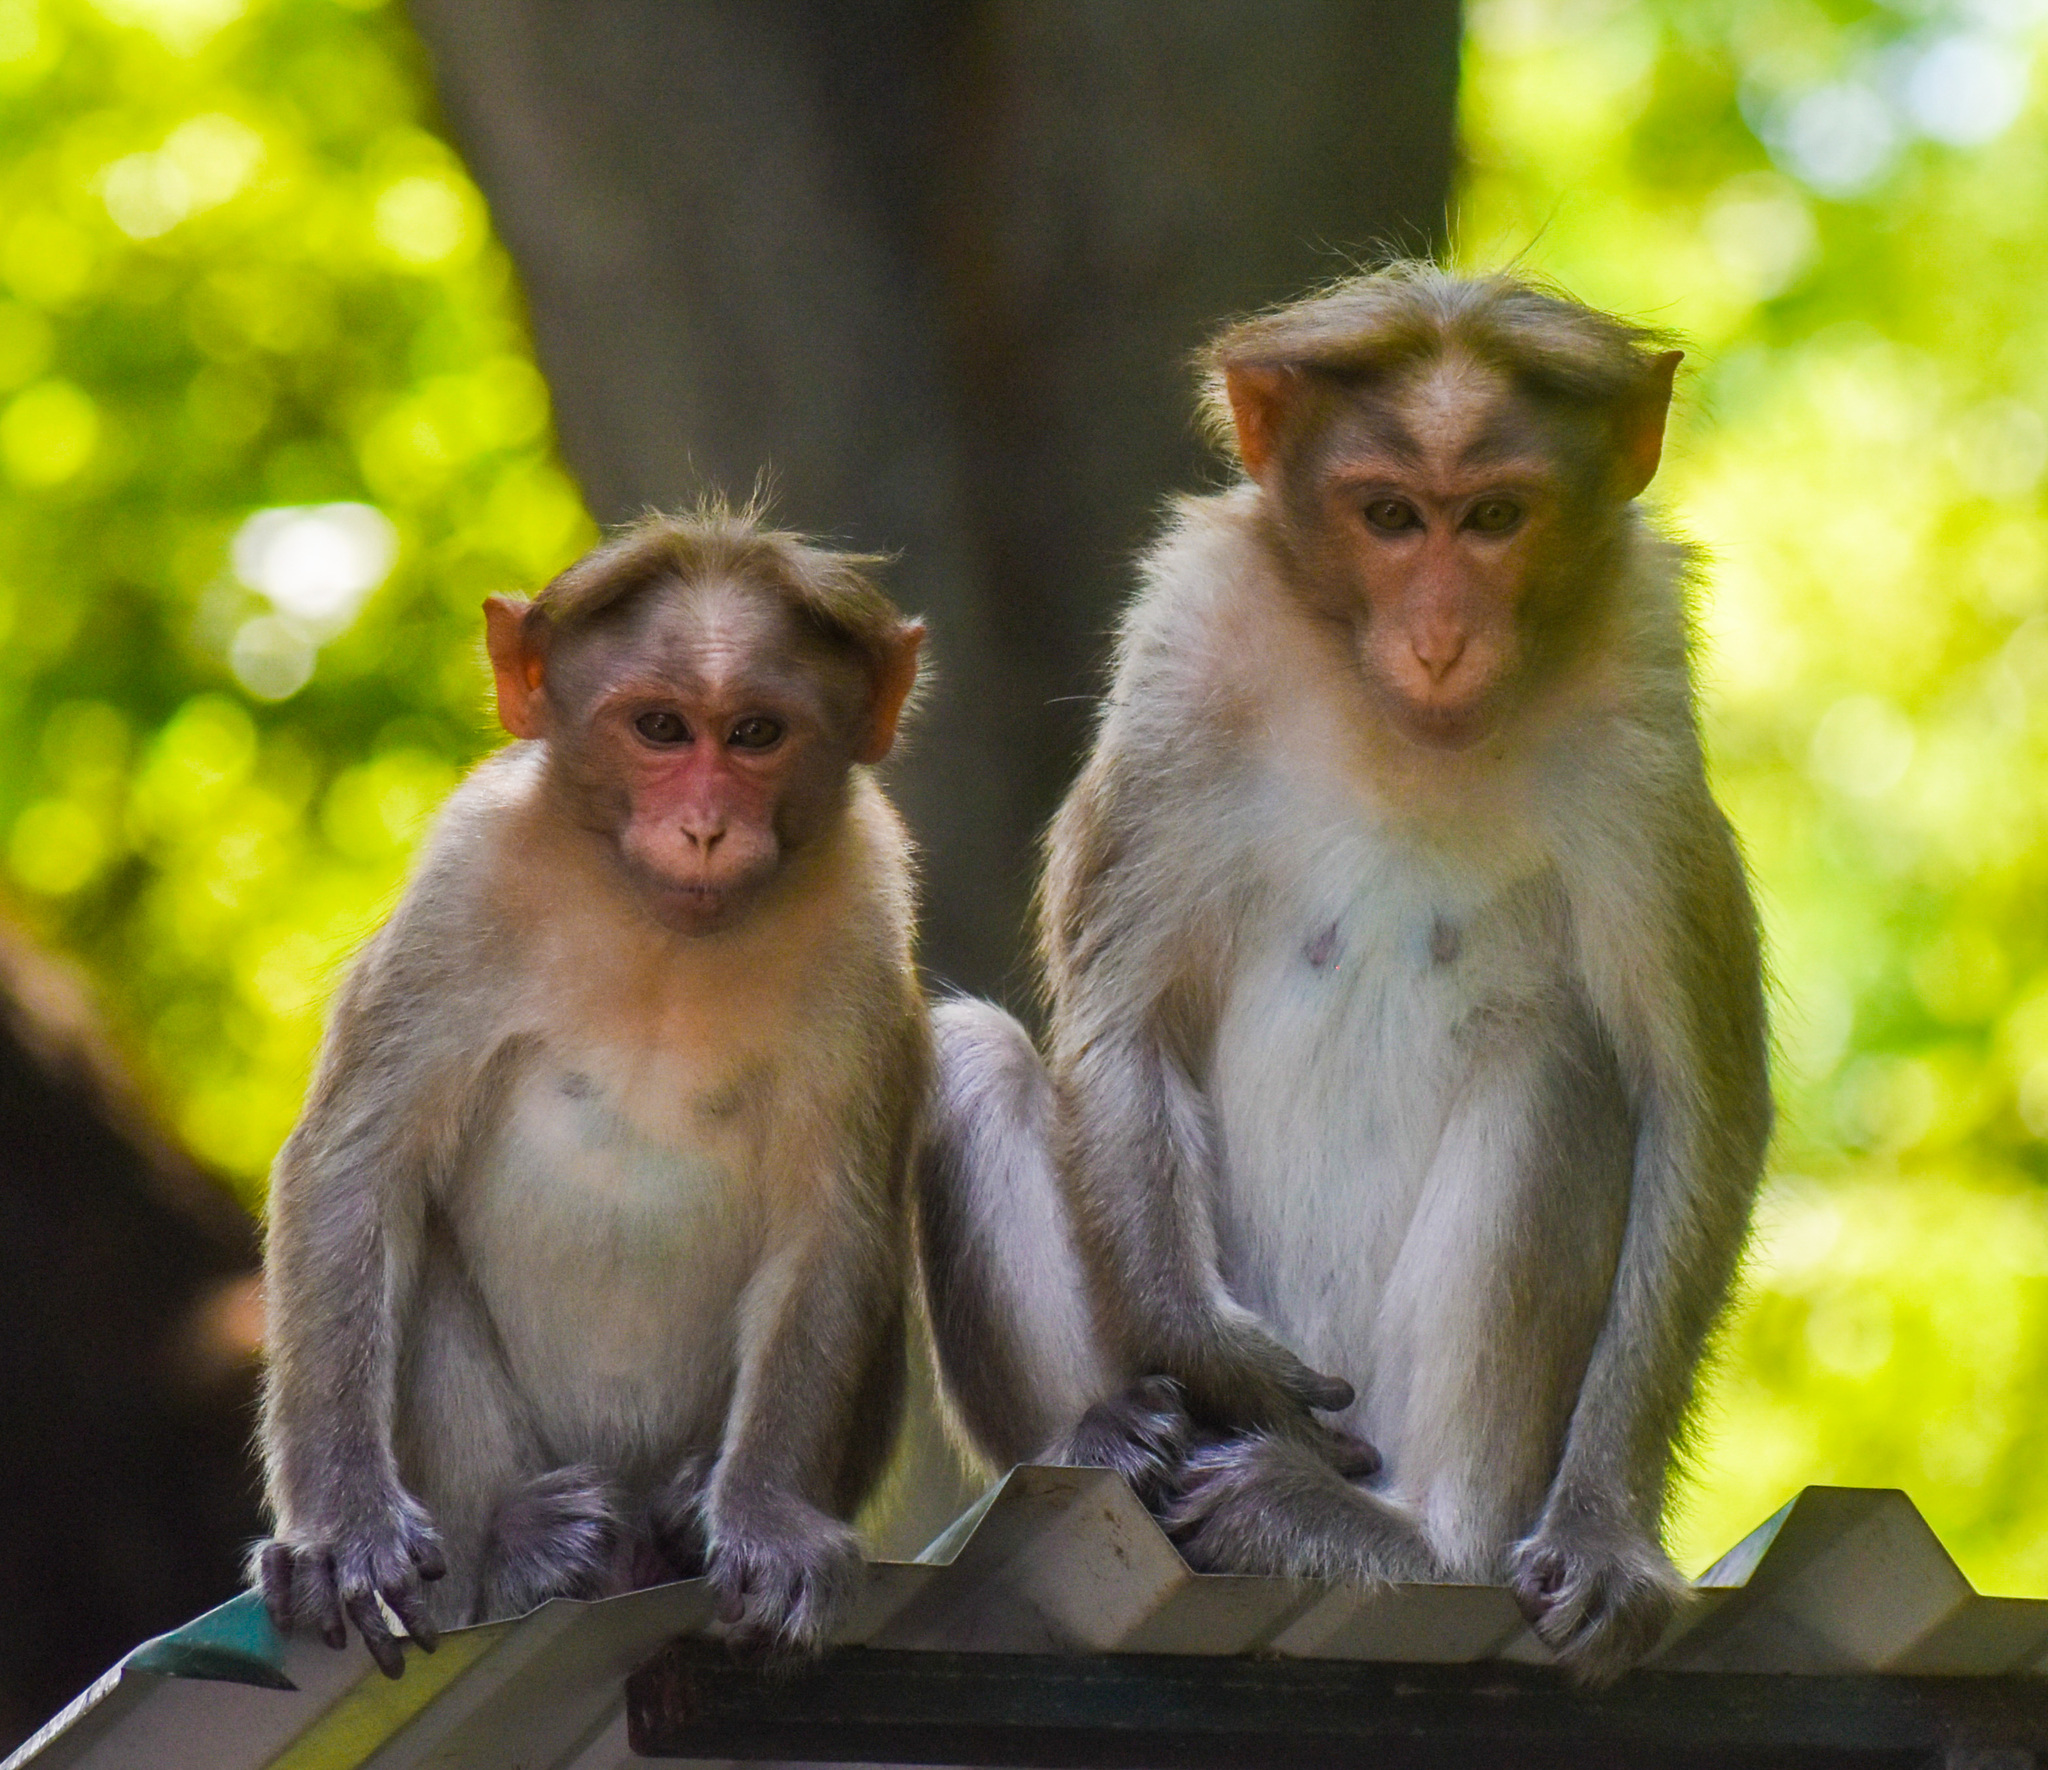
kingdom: Animalia
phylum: Chordata
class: Mammalia
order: Primates
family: Cercopithecidae
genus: Macaca
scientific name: Macaca radiata
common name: Bonnet macaque
